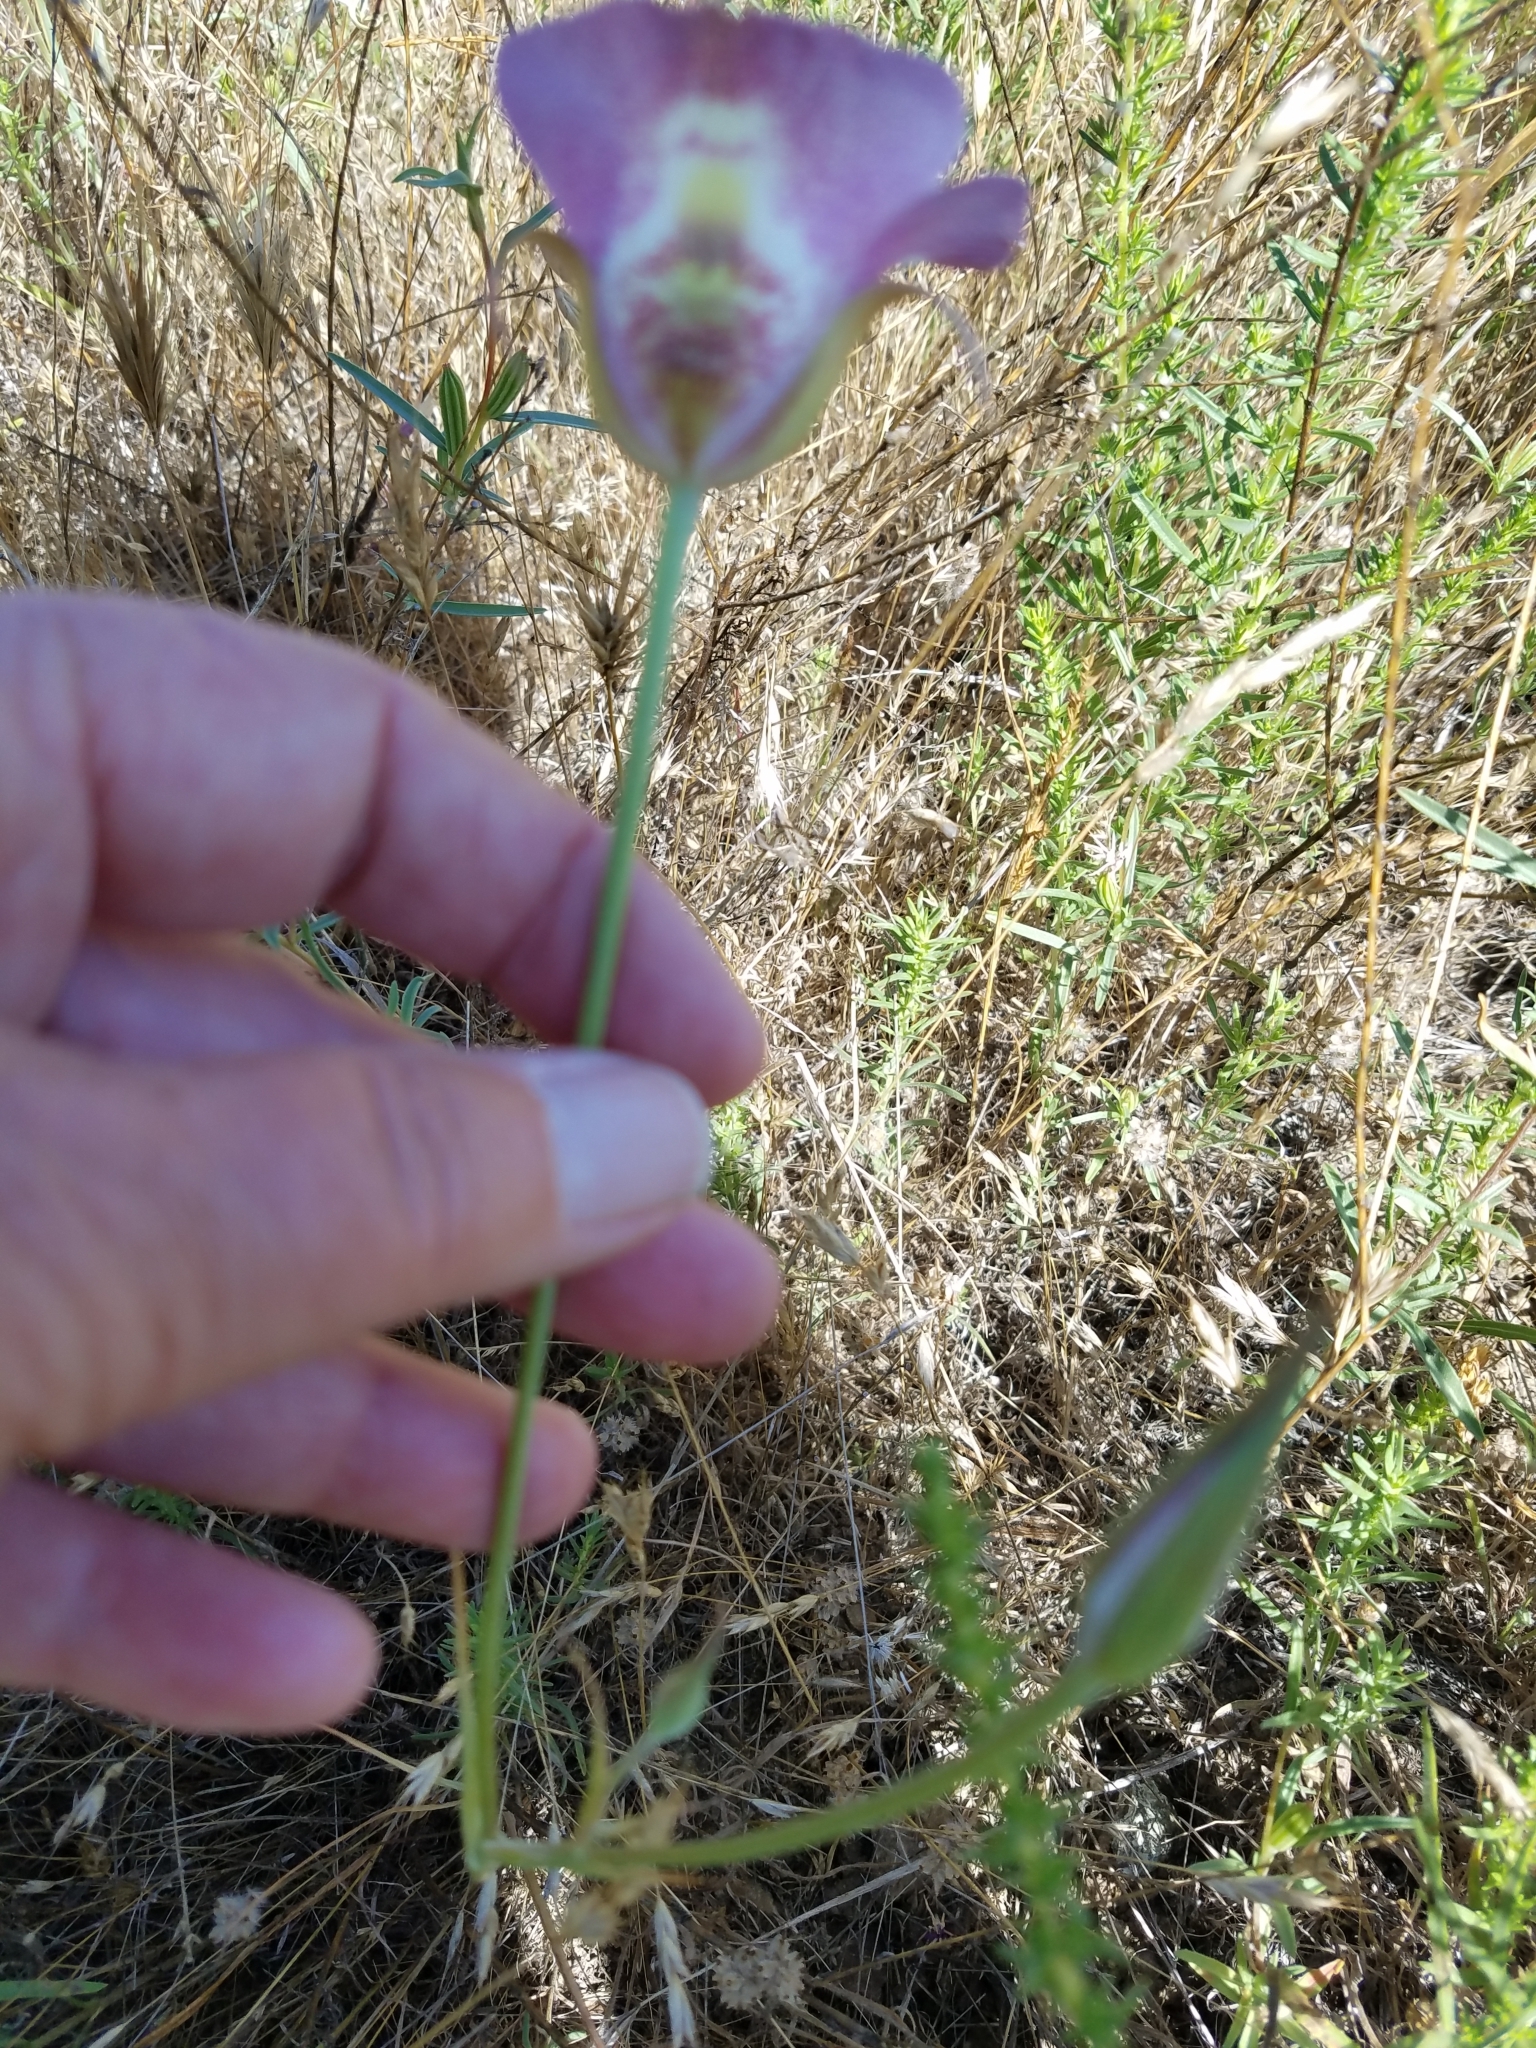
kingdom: Plantae
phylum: Tracheophyta
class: Liliopsida
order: Liliales
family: Liliaceae
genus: Calochortus
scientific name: Calochortus argillosus
